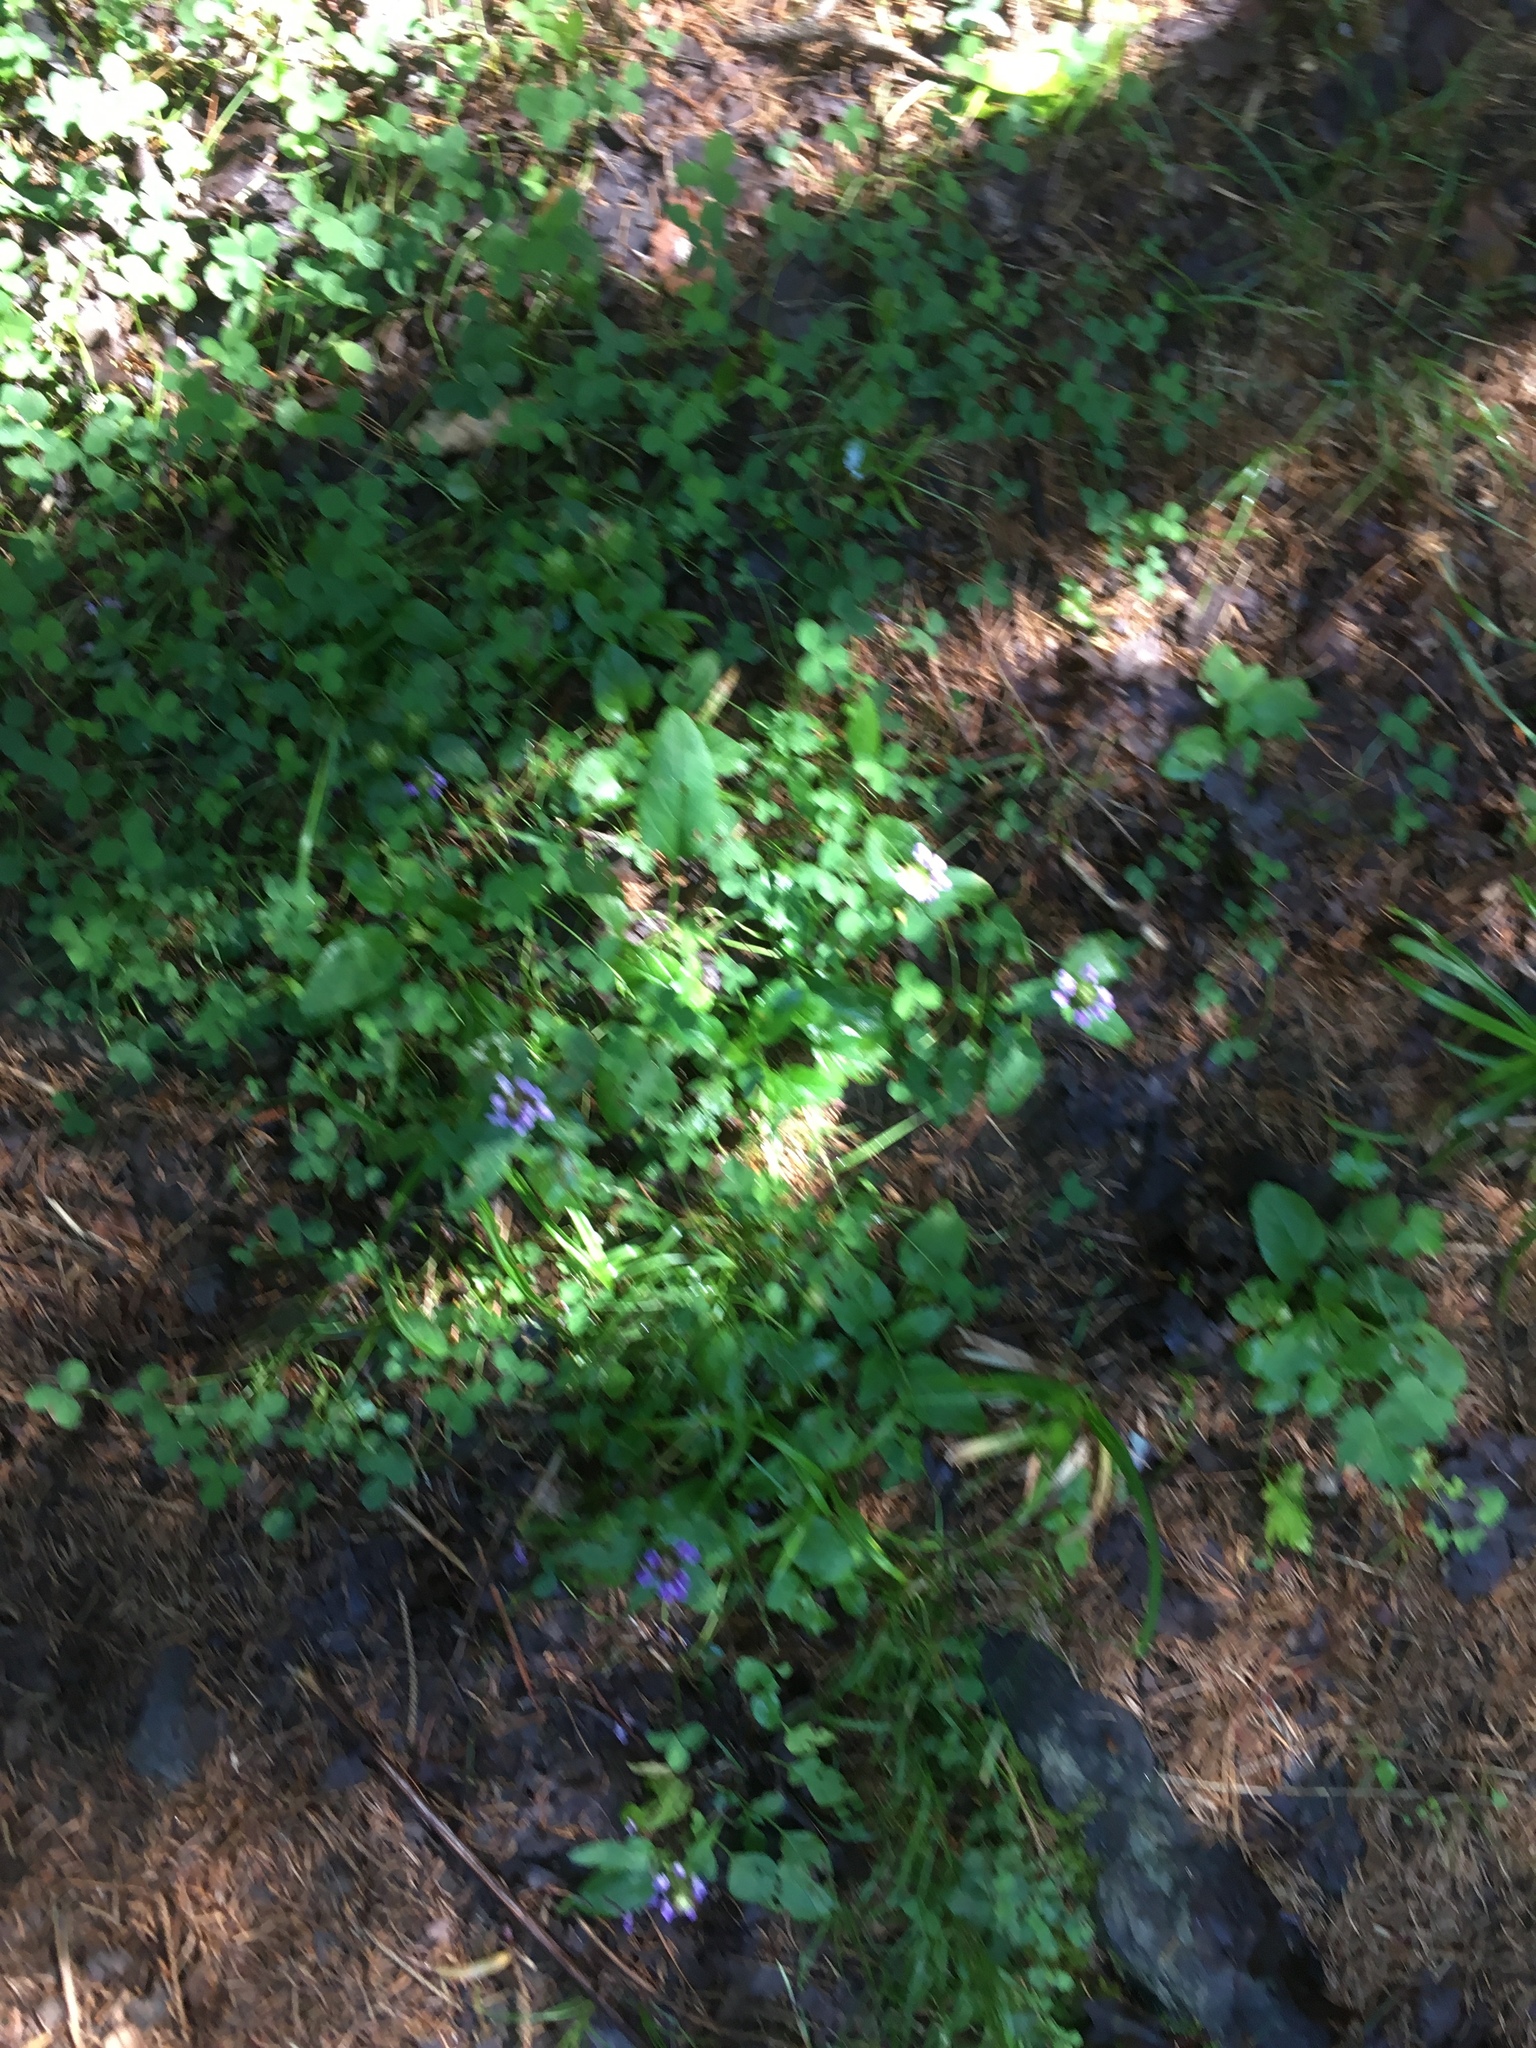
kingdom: Plantae
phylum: Tracheophyta
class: Magnoliopsida
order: Lamiales
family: Lamiaceae
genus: Prunella
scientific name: Prunella vulgaris
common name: Heal-all
